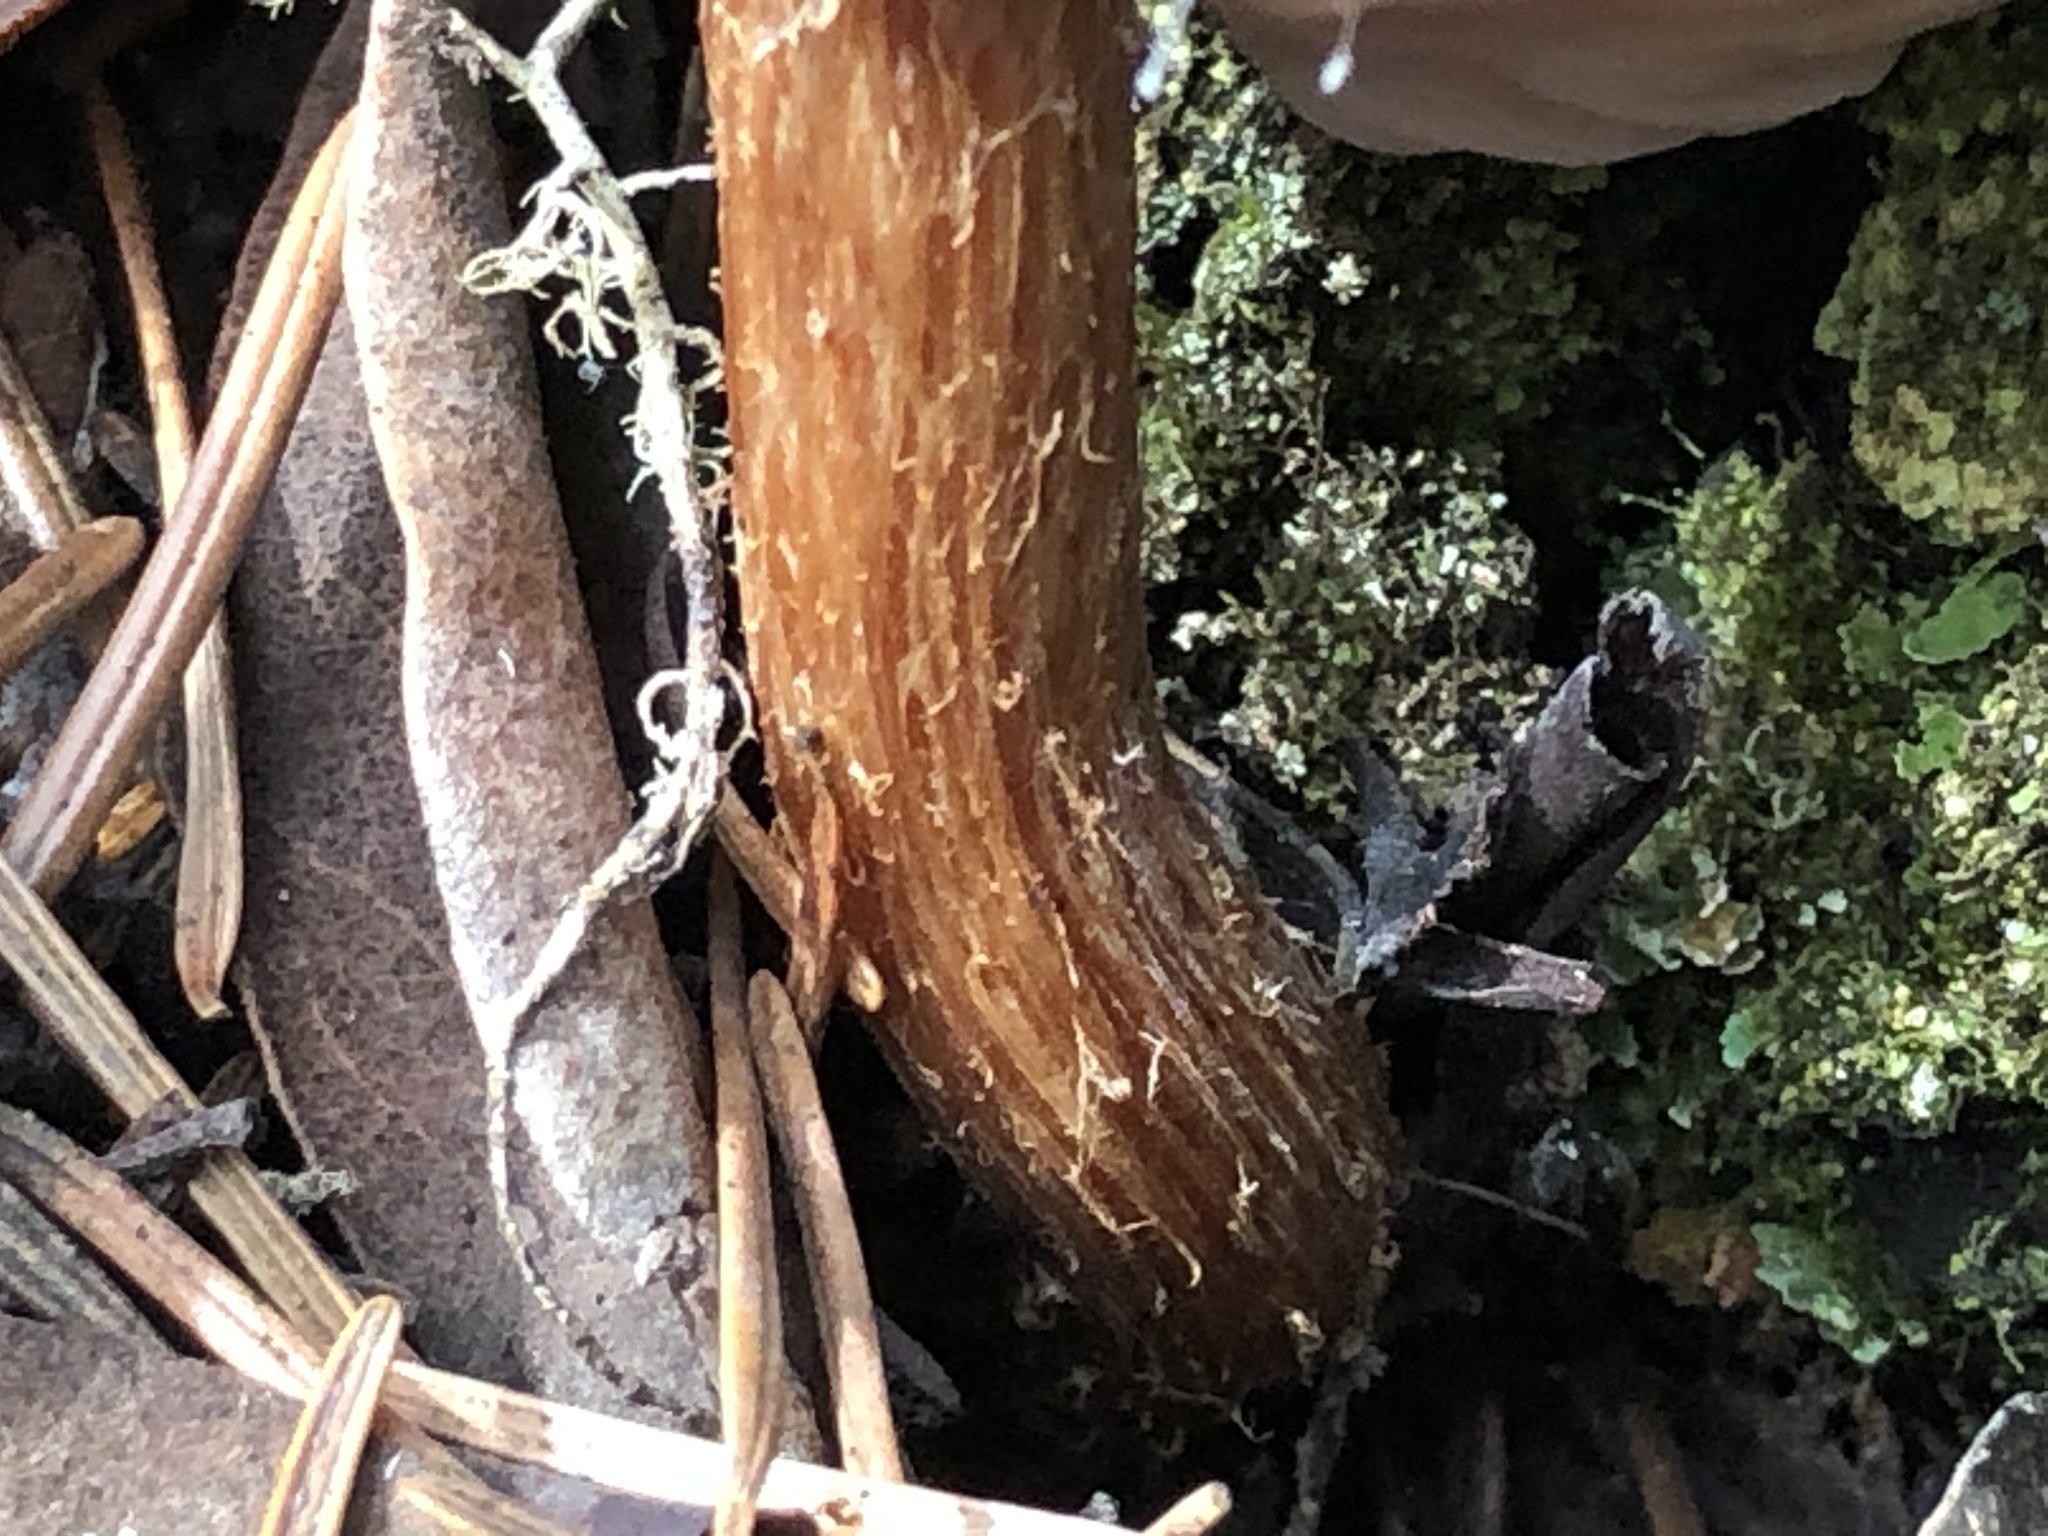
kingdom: Fungi
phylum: Basidiomycota
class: Agaricomycetes
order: Agaricales
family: Hydnangiaceae
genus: Laccaria
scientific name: Laccaria amethysteo-occidentalis
